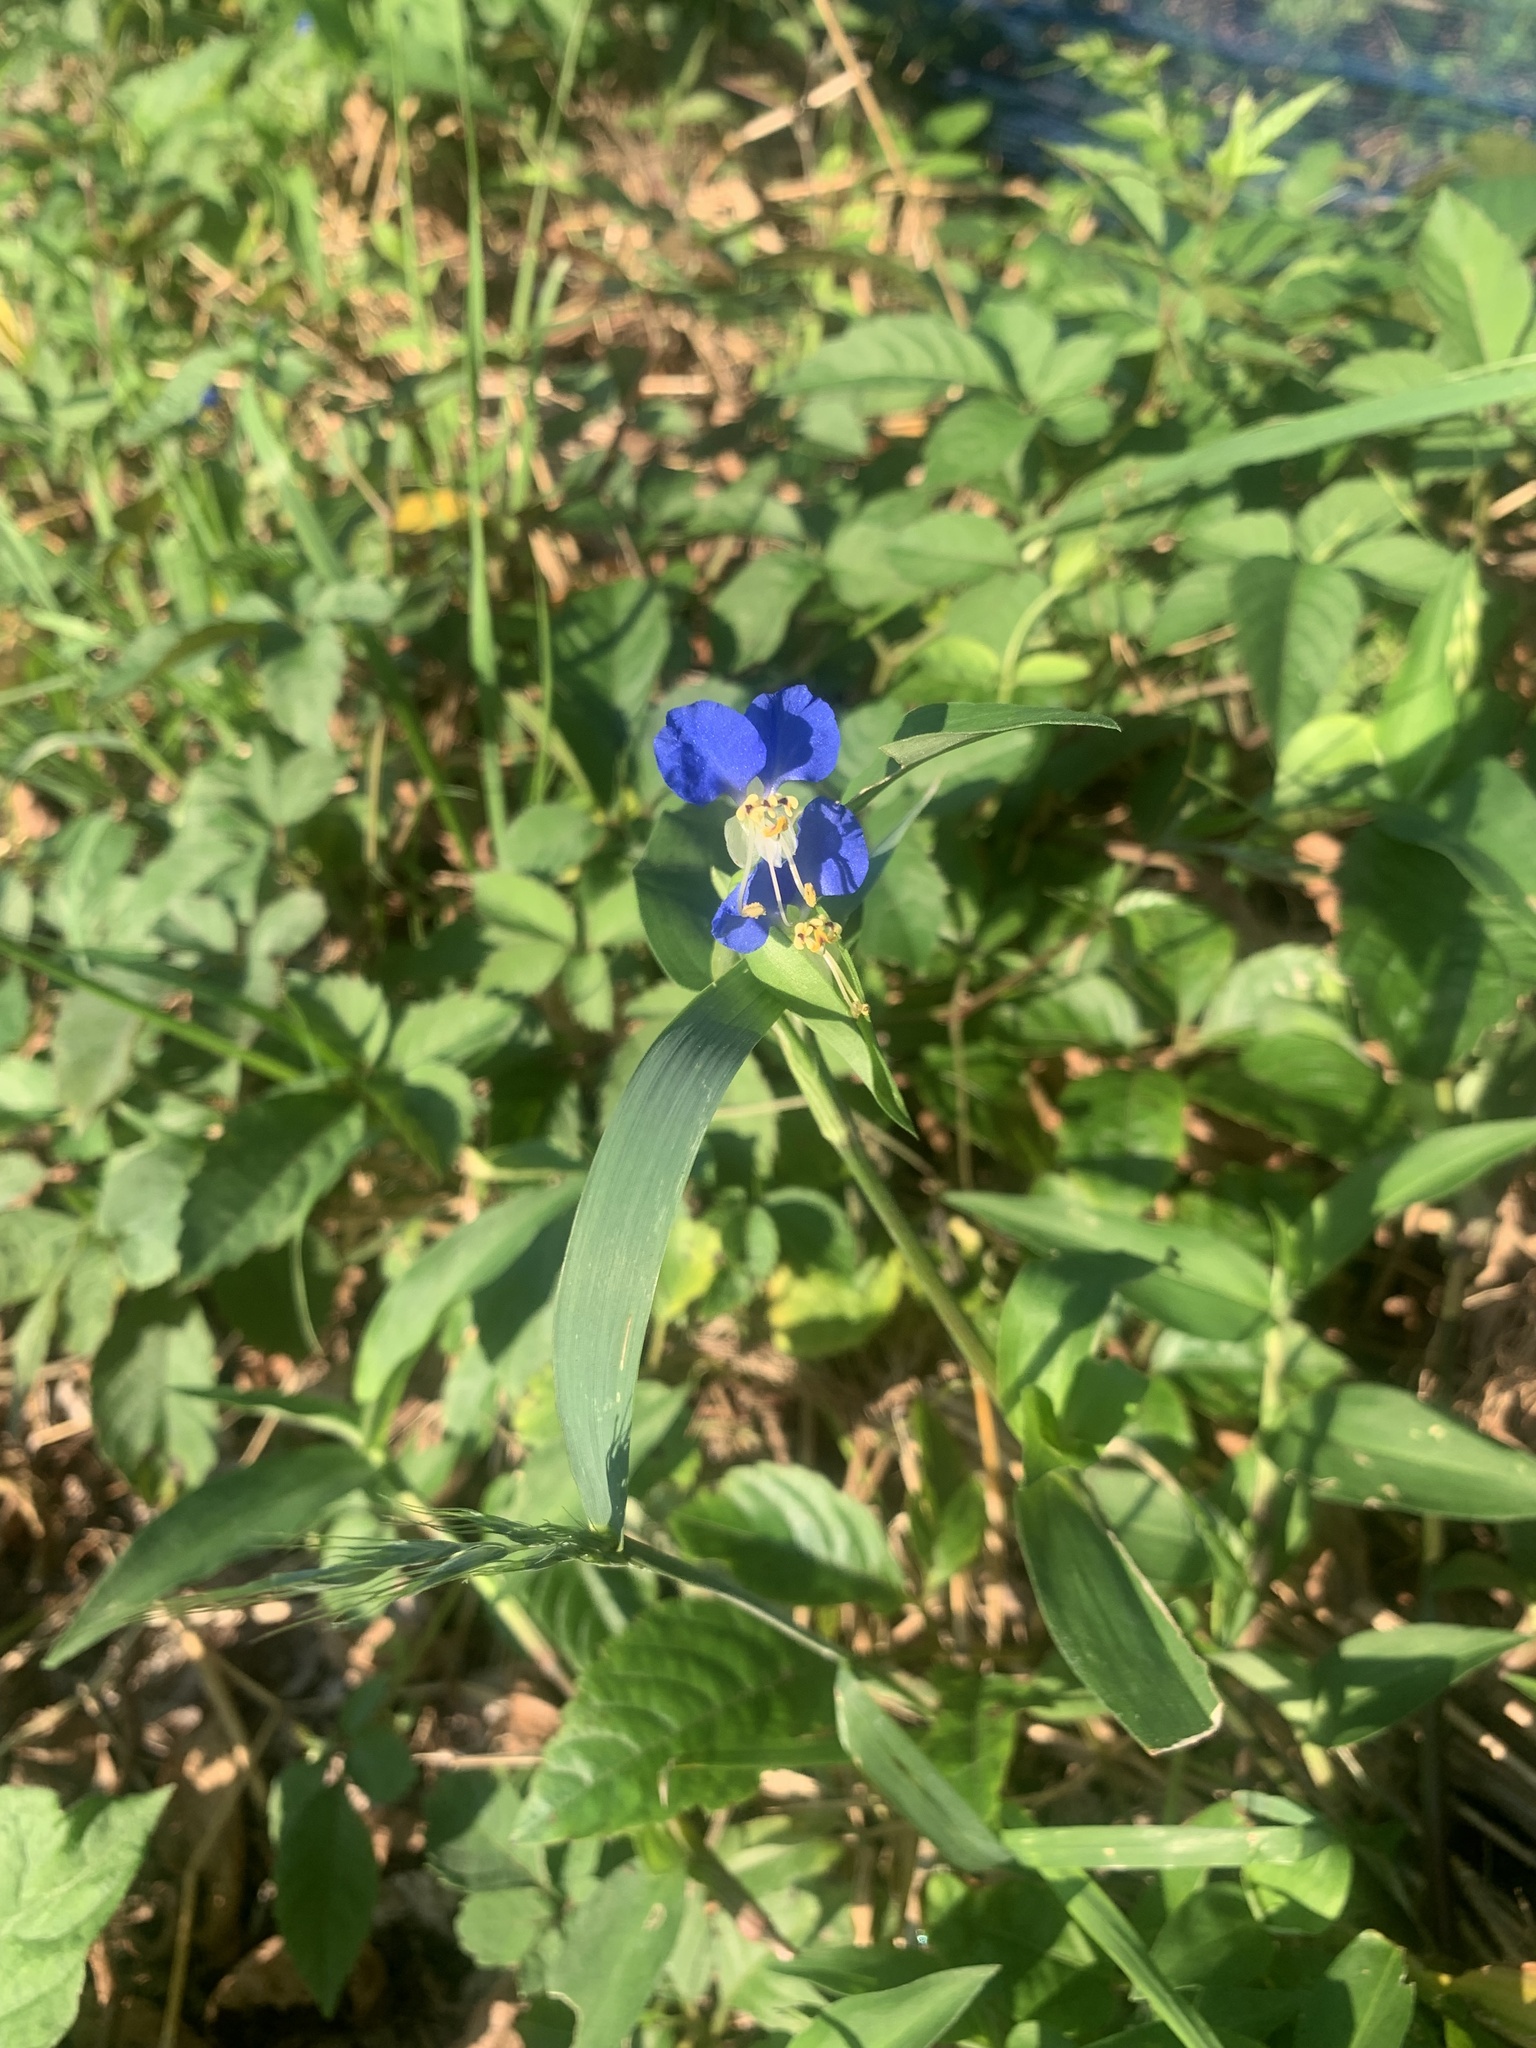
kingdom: Plantae
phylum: Tracheophyta
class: Liliopsida
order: Commelinales
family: Commelinaceae
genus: Commelina
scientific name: Commelina communis
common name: Asiatic dayflower
